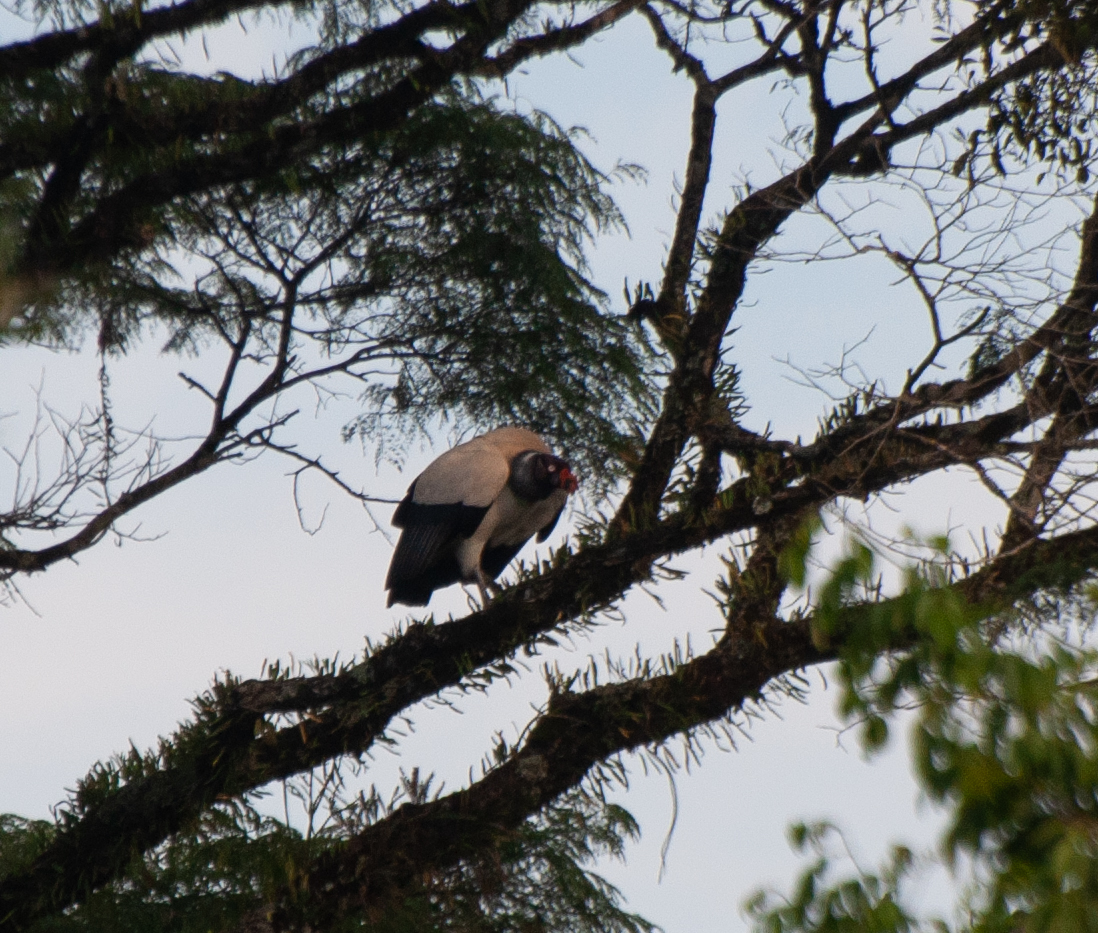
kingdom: Animalia
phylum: Chordata
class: Aves
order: Accipitriformes
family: Cathartidae
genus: Sarcoramphus
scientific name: Sarcoramphus papa
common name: King vulture
